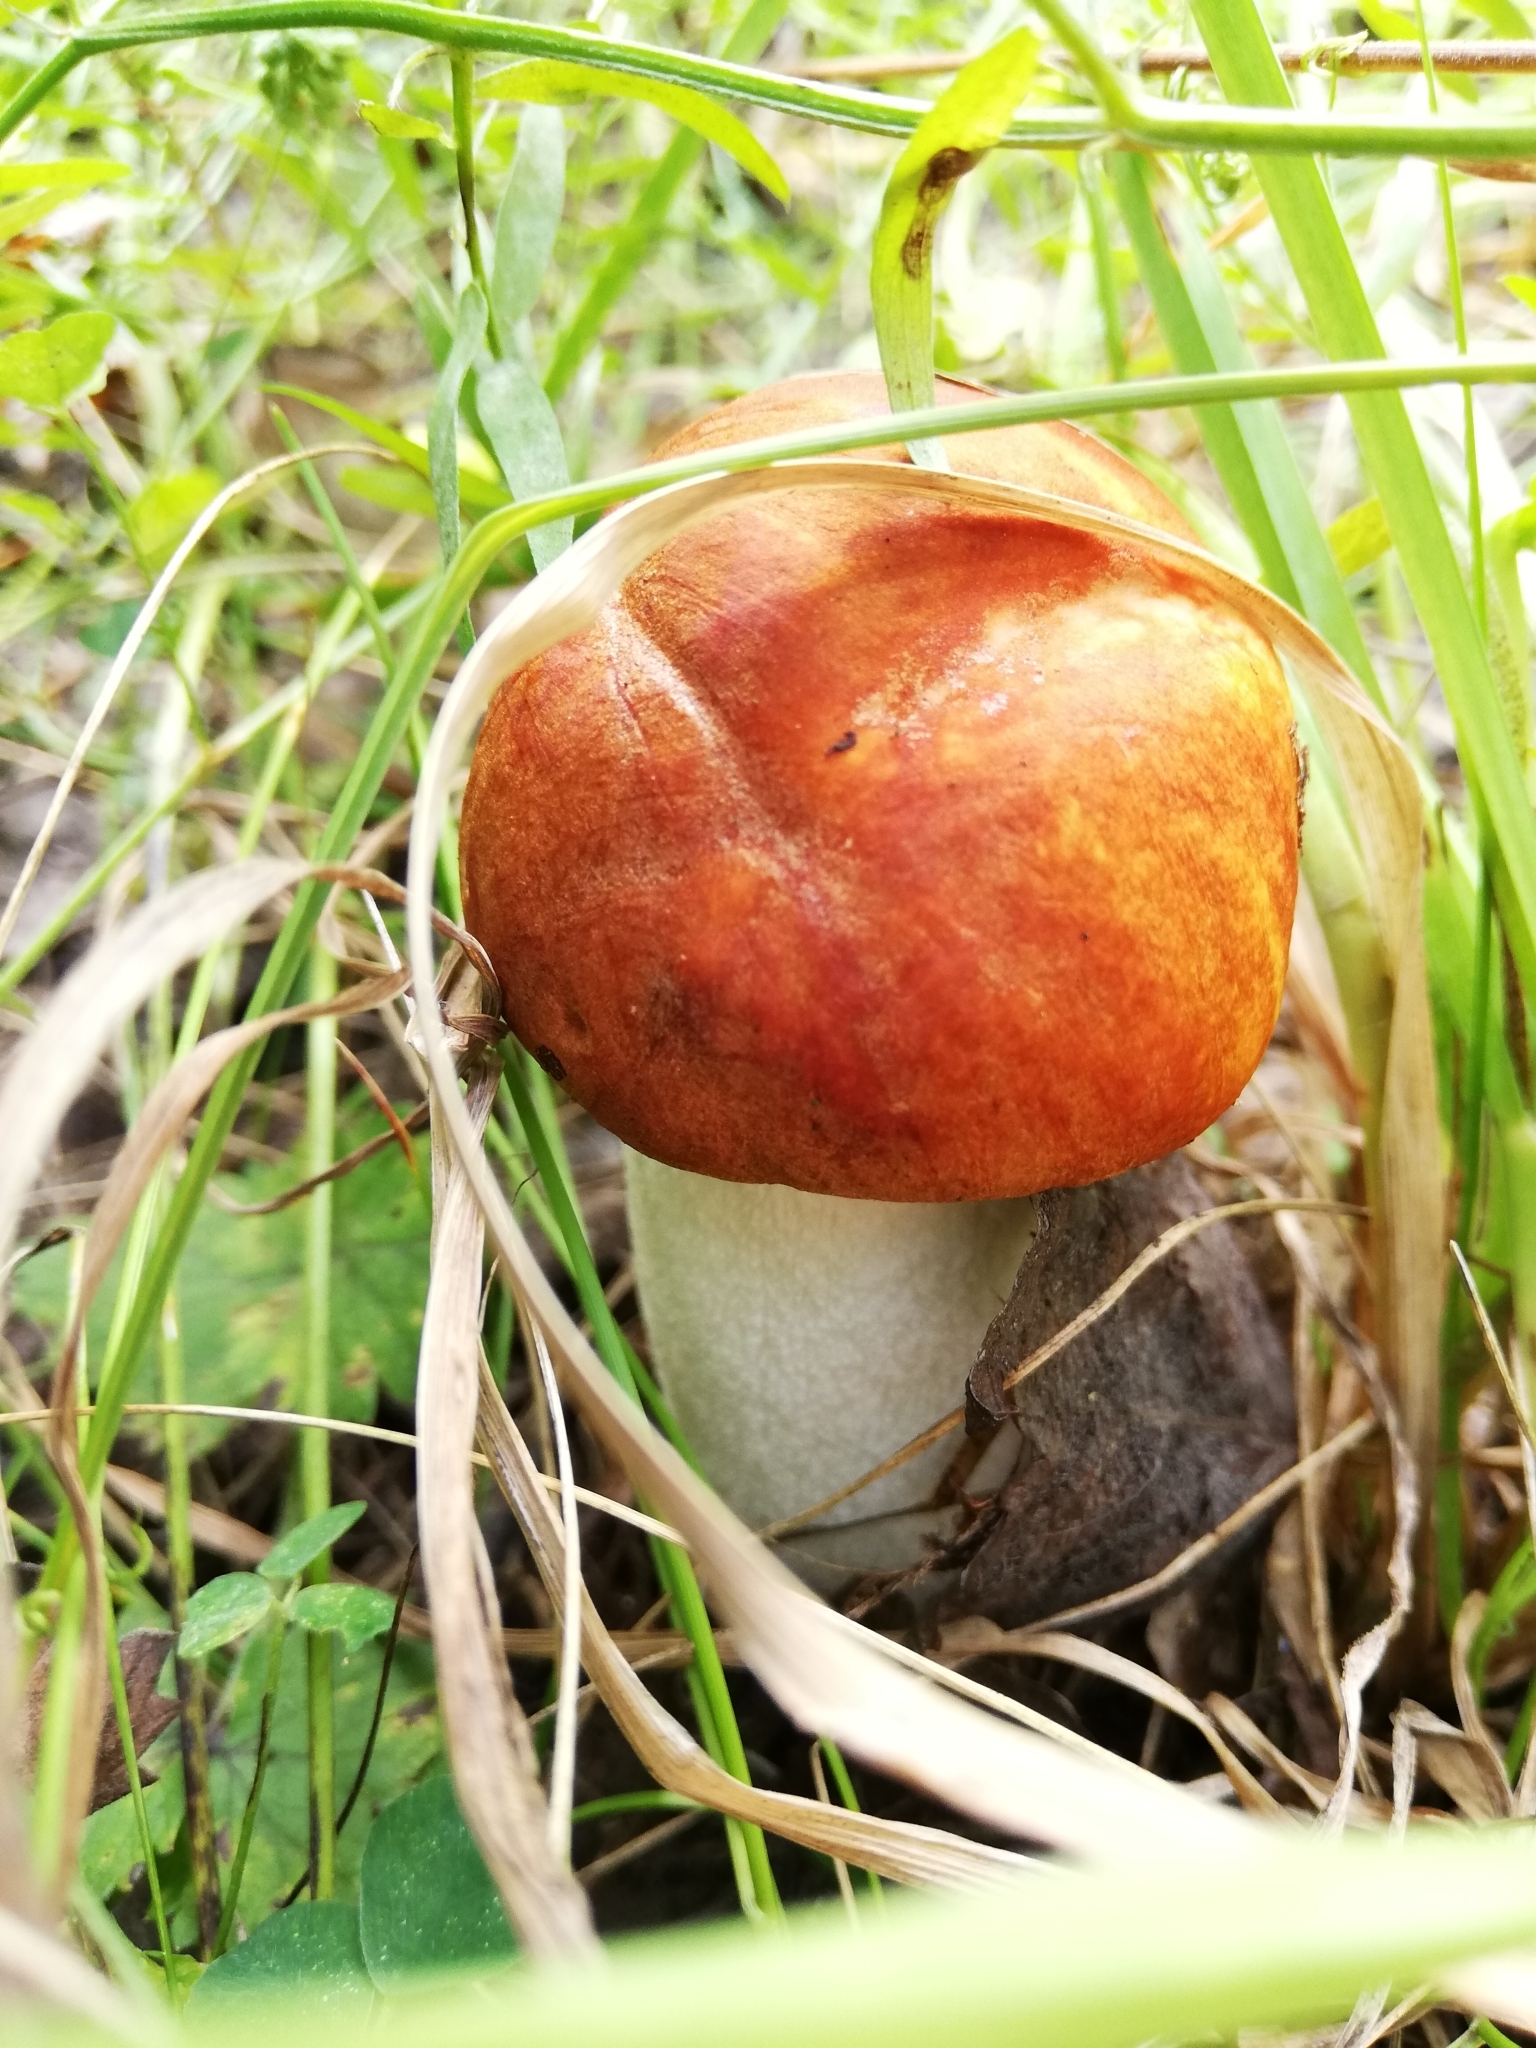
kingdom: Fungi
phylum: Basidiomycota
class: Agaricomycetes
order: Boletales
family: Boletaceae
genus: Leccinum
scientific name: Leccinum albostipitatum
